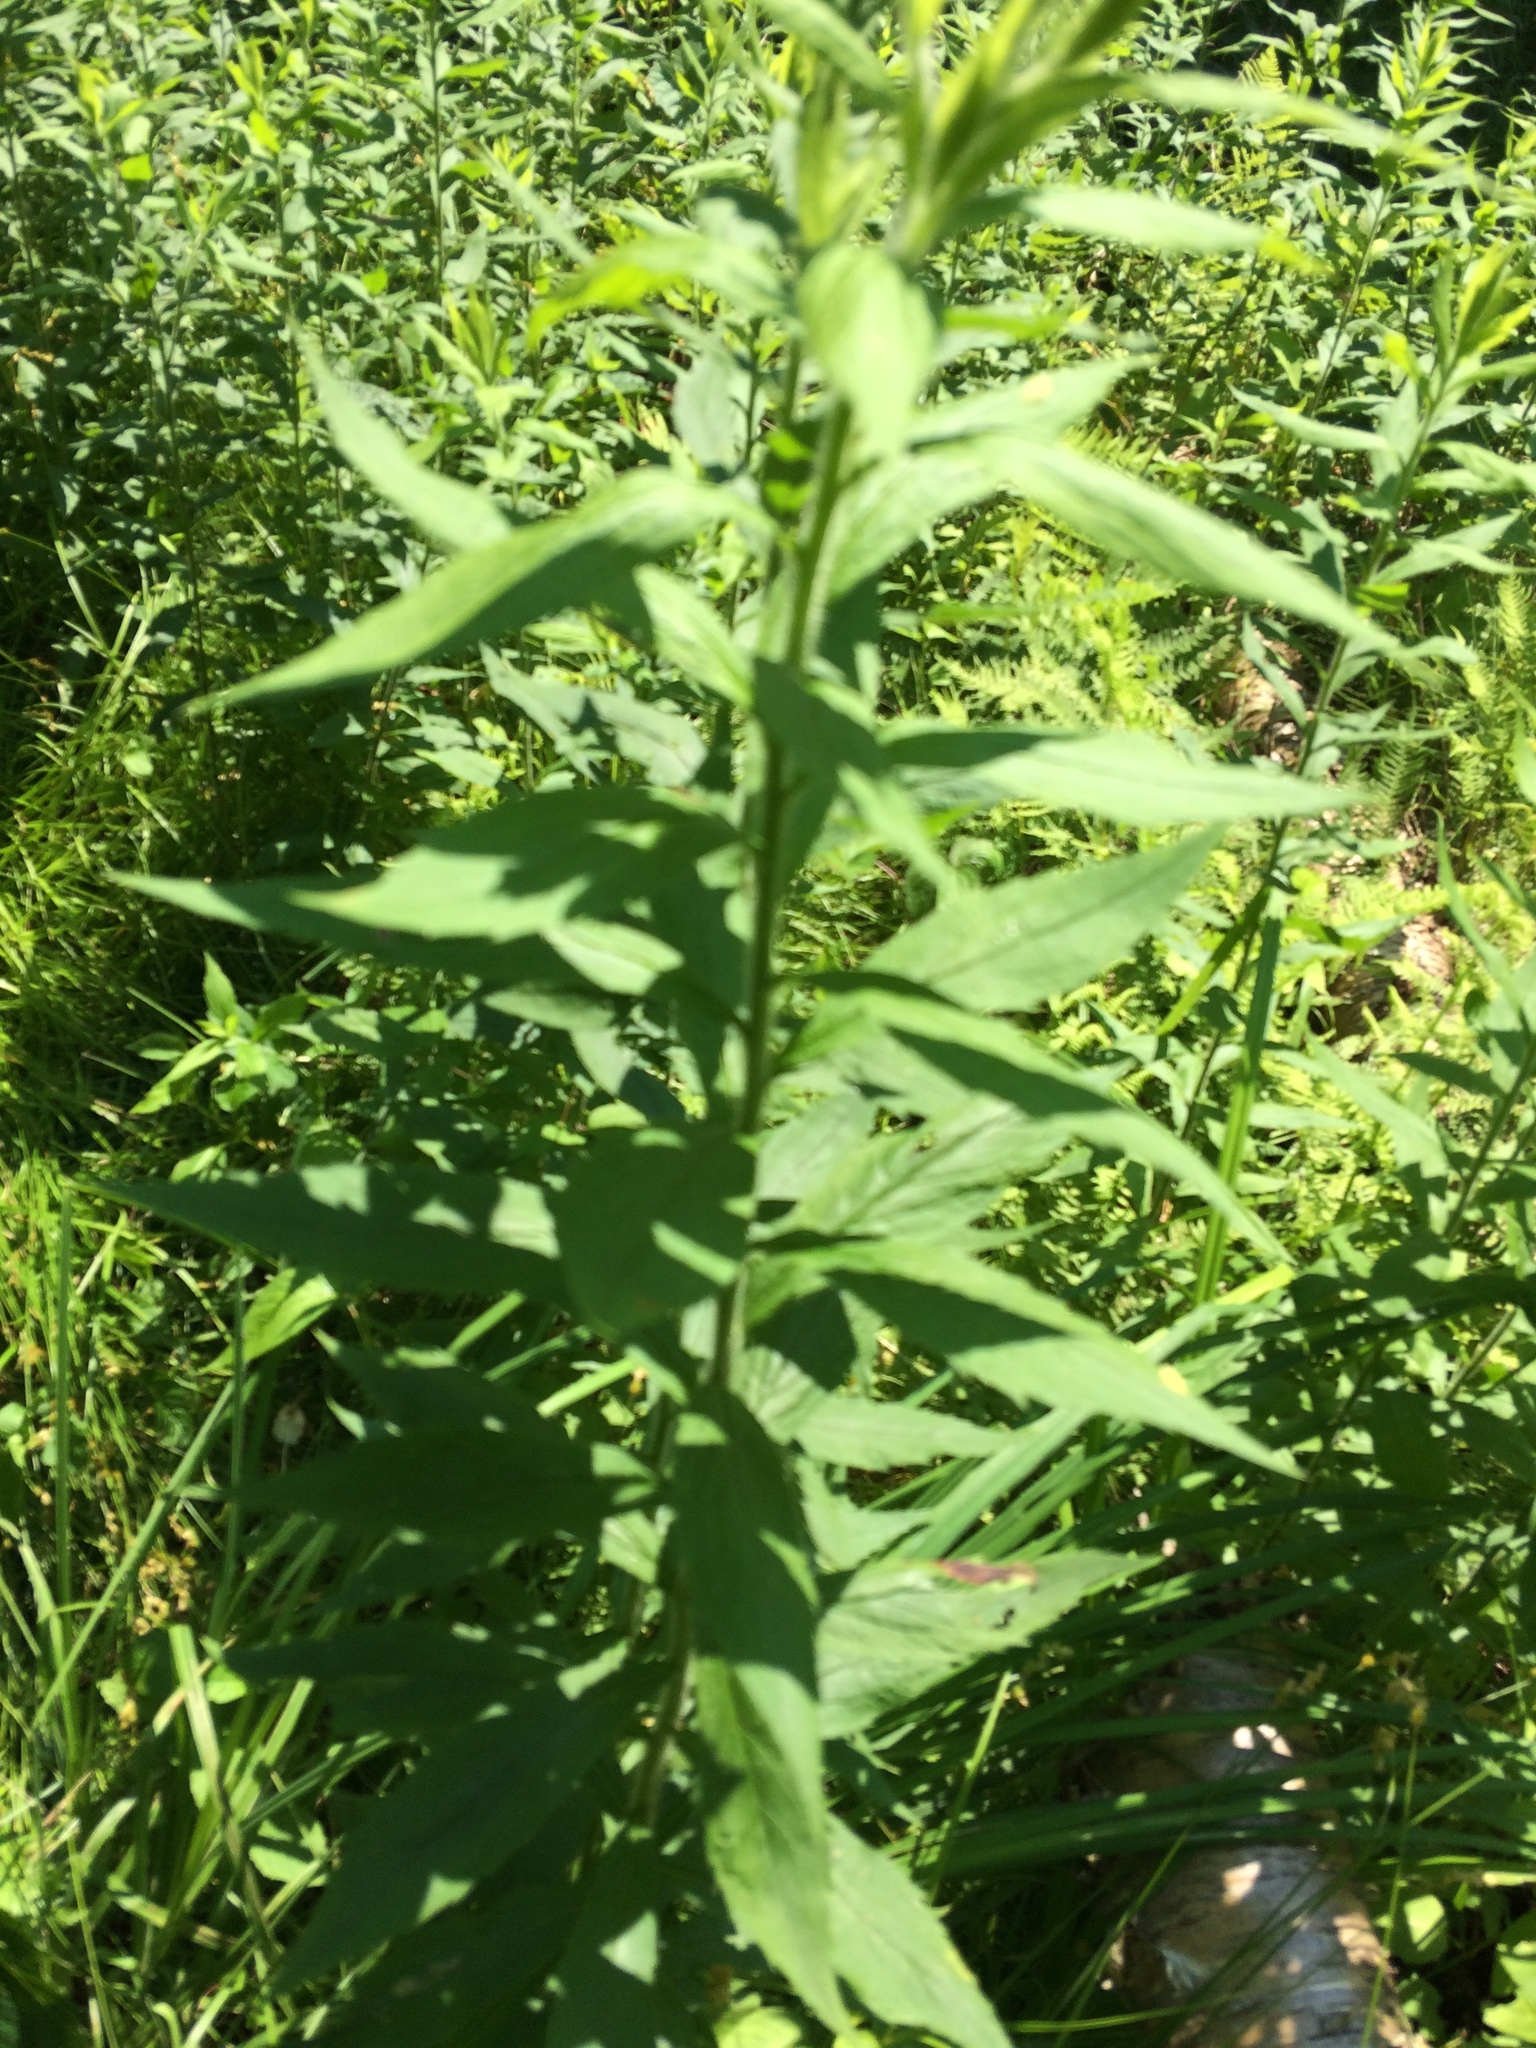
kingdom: Plantae
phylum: Tracheophyta
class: Magnoliopsida
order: Asterales
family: Asteraceae
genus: Solidago
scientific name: Solidago rugosa
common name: Rough-stemmed goldenrod
